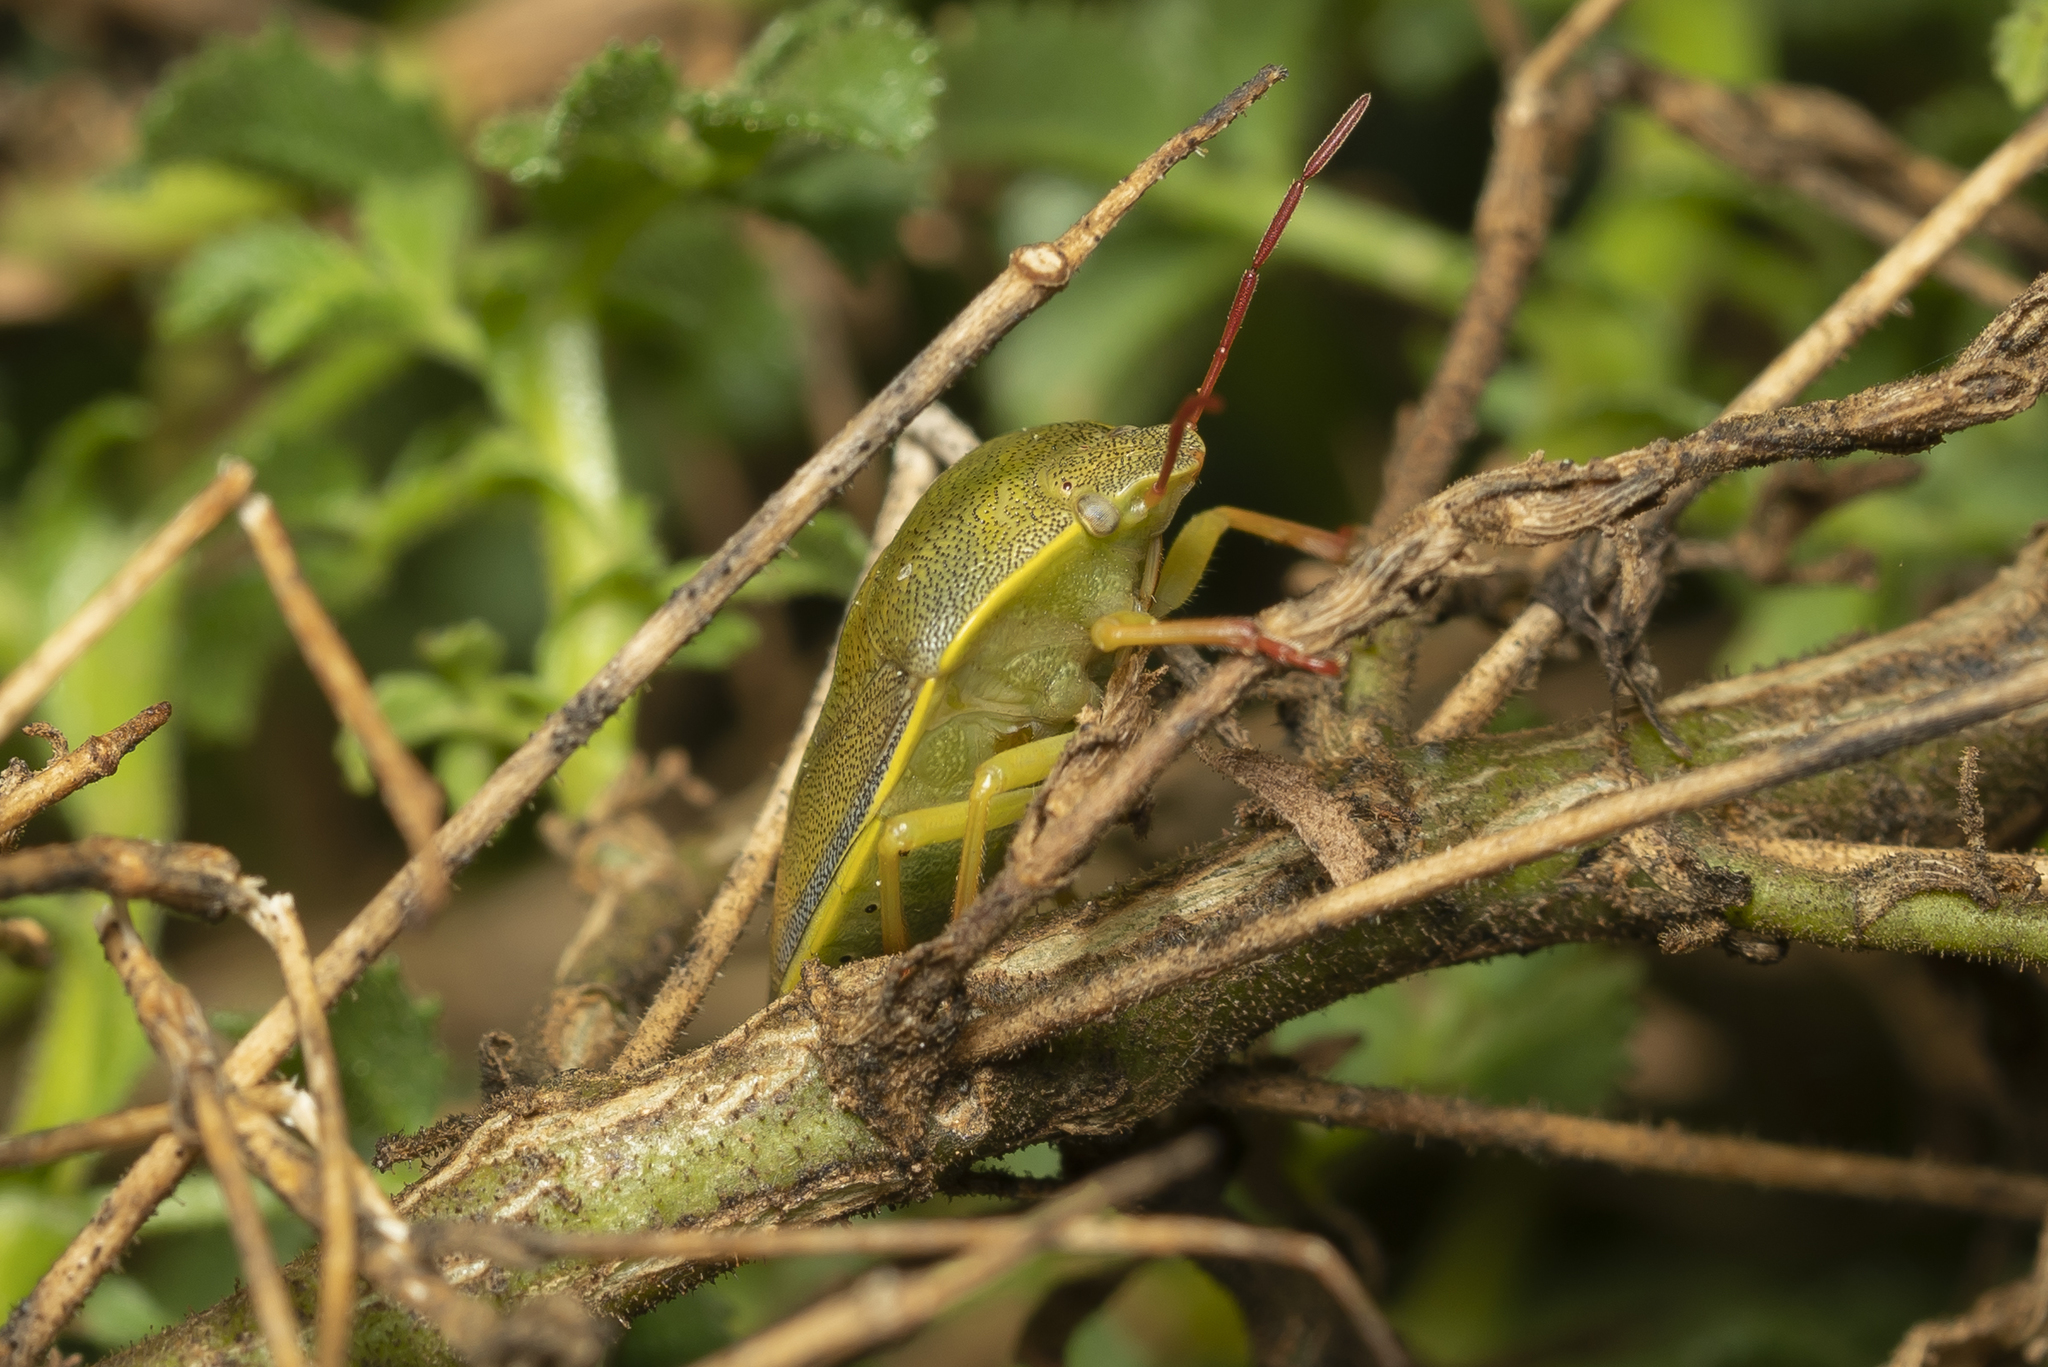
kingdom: Animalia
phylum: Arthropoda
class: Insecta
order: Hemiptera
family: Pentatomidae
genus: Piezodorus
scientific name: Piezodorus lituratus
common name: Stink bug
